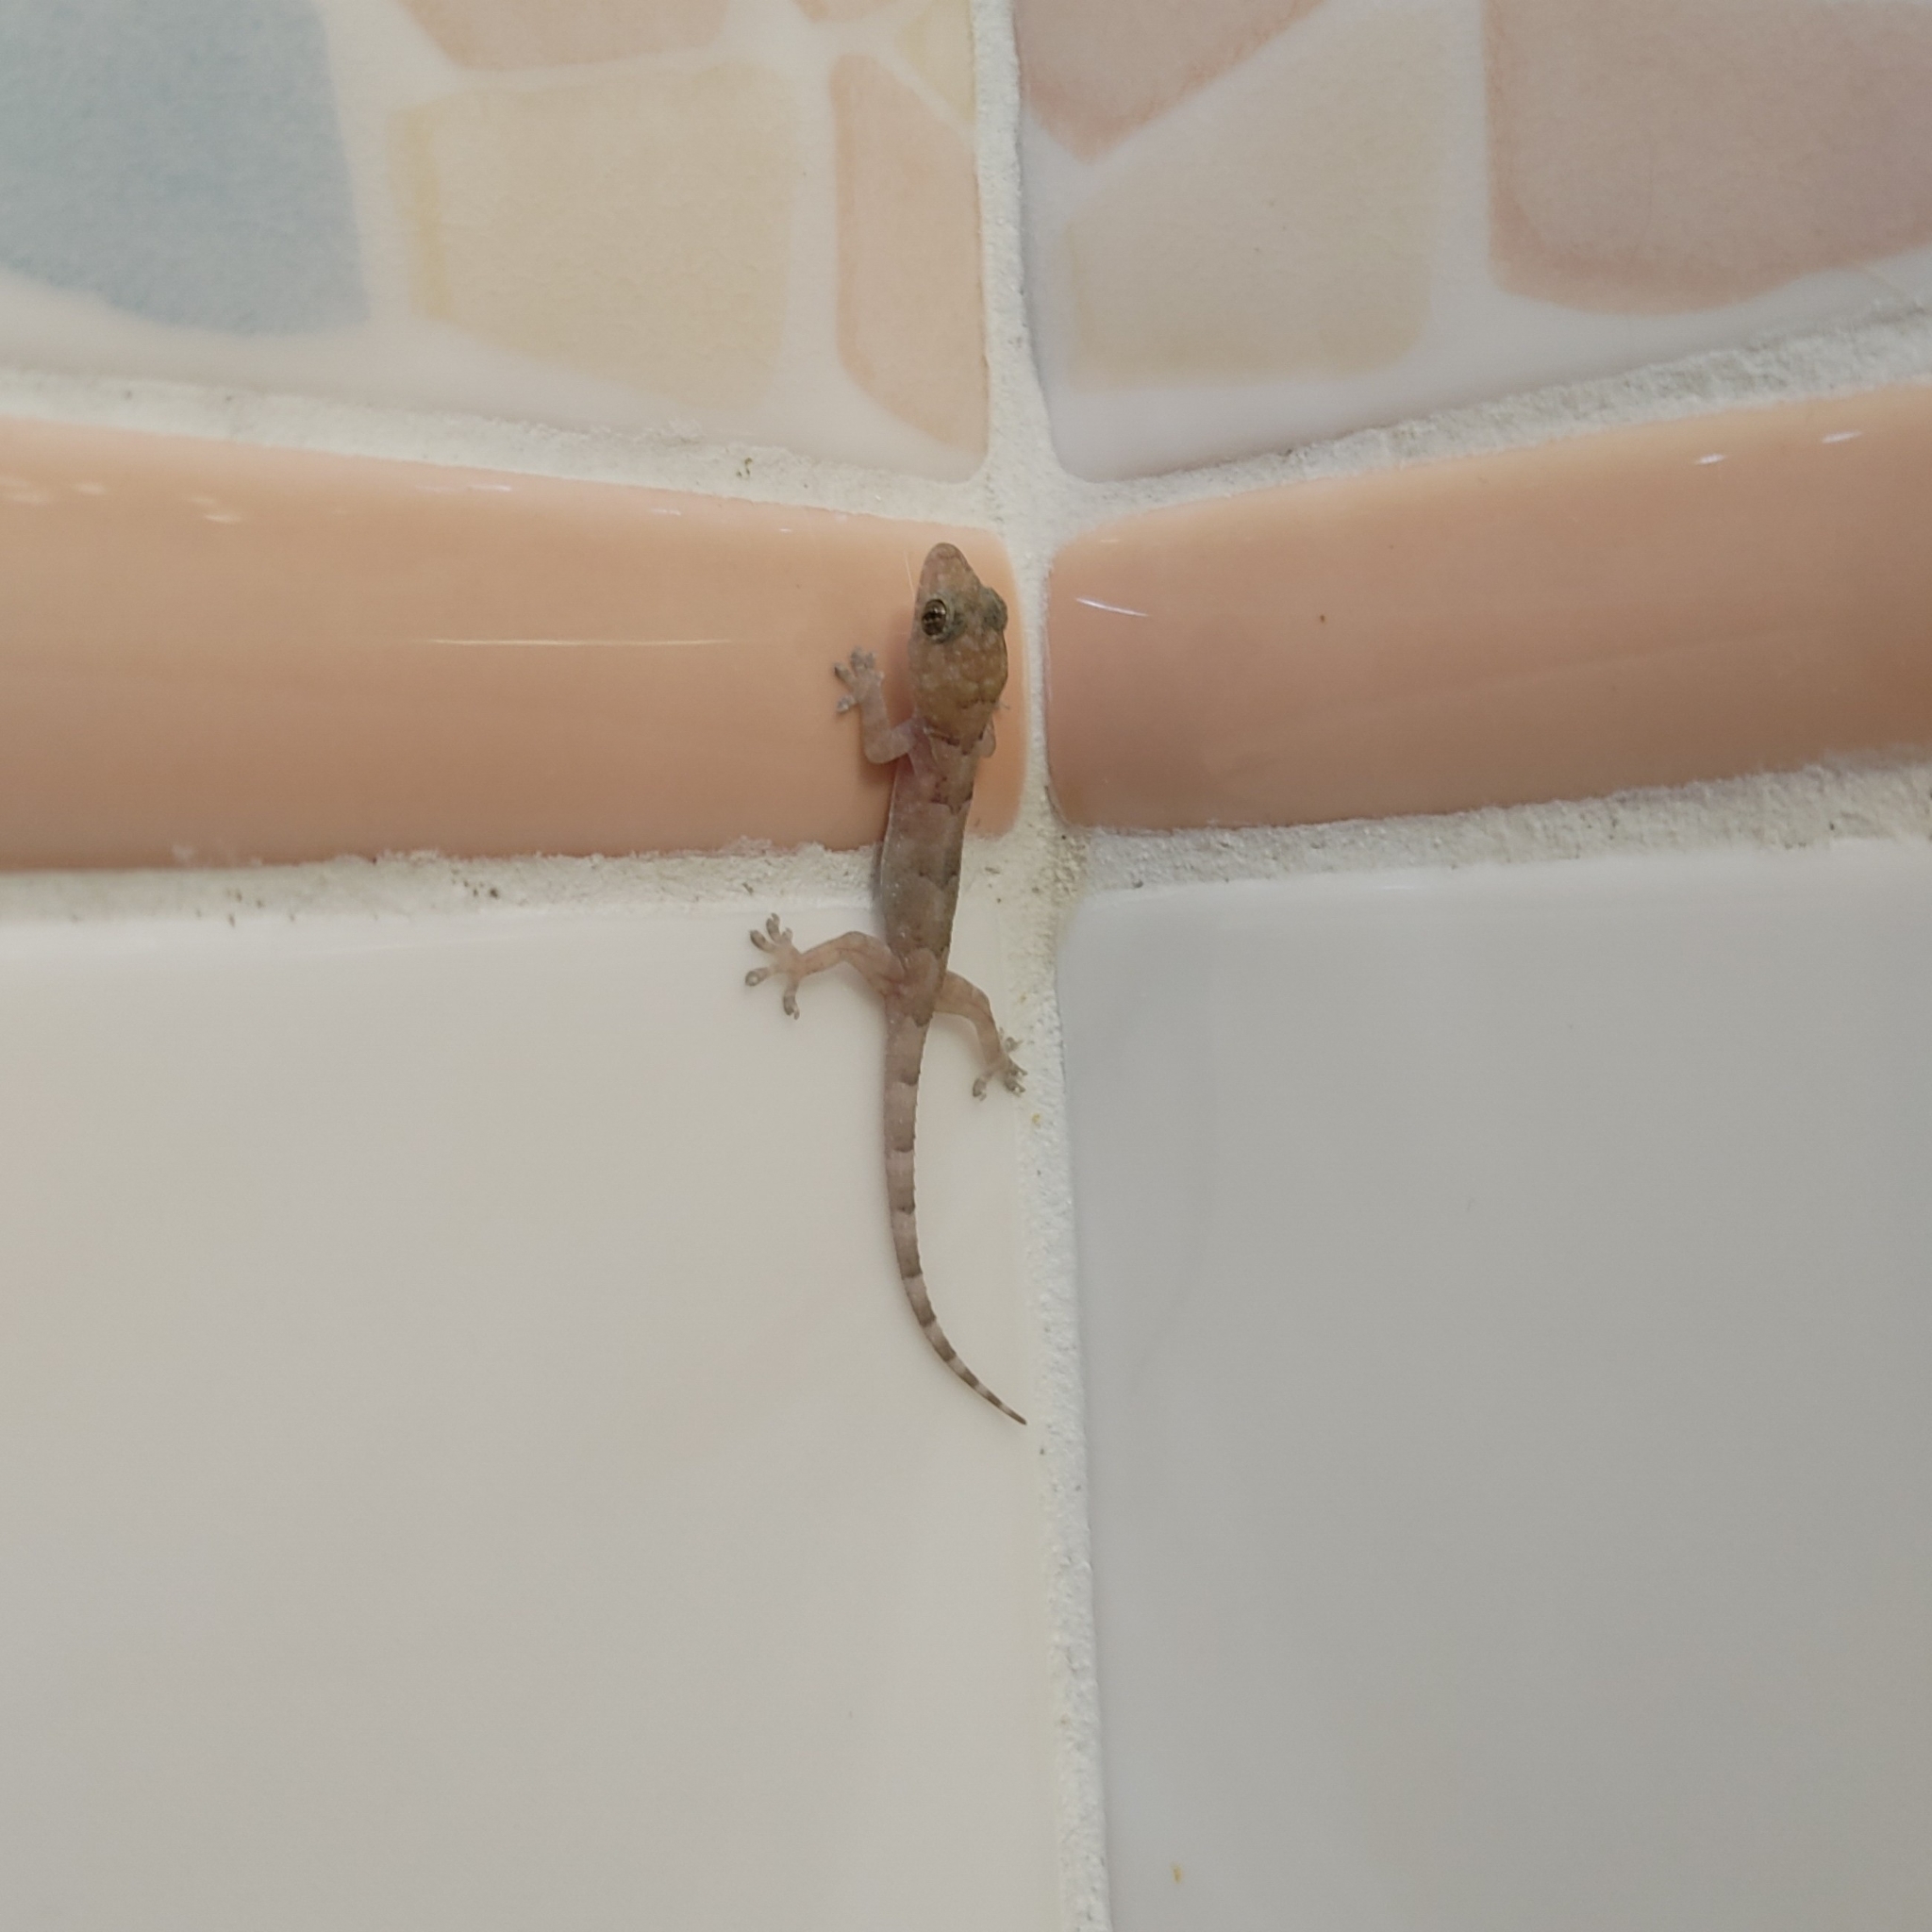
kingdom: Animalia
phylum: Chordata
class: Squamata
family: Gekkonidae
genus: Hemidactylus
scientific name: Hemidactylus mabouia
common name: House gecko
